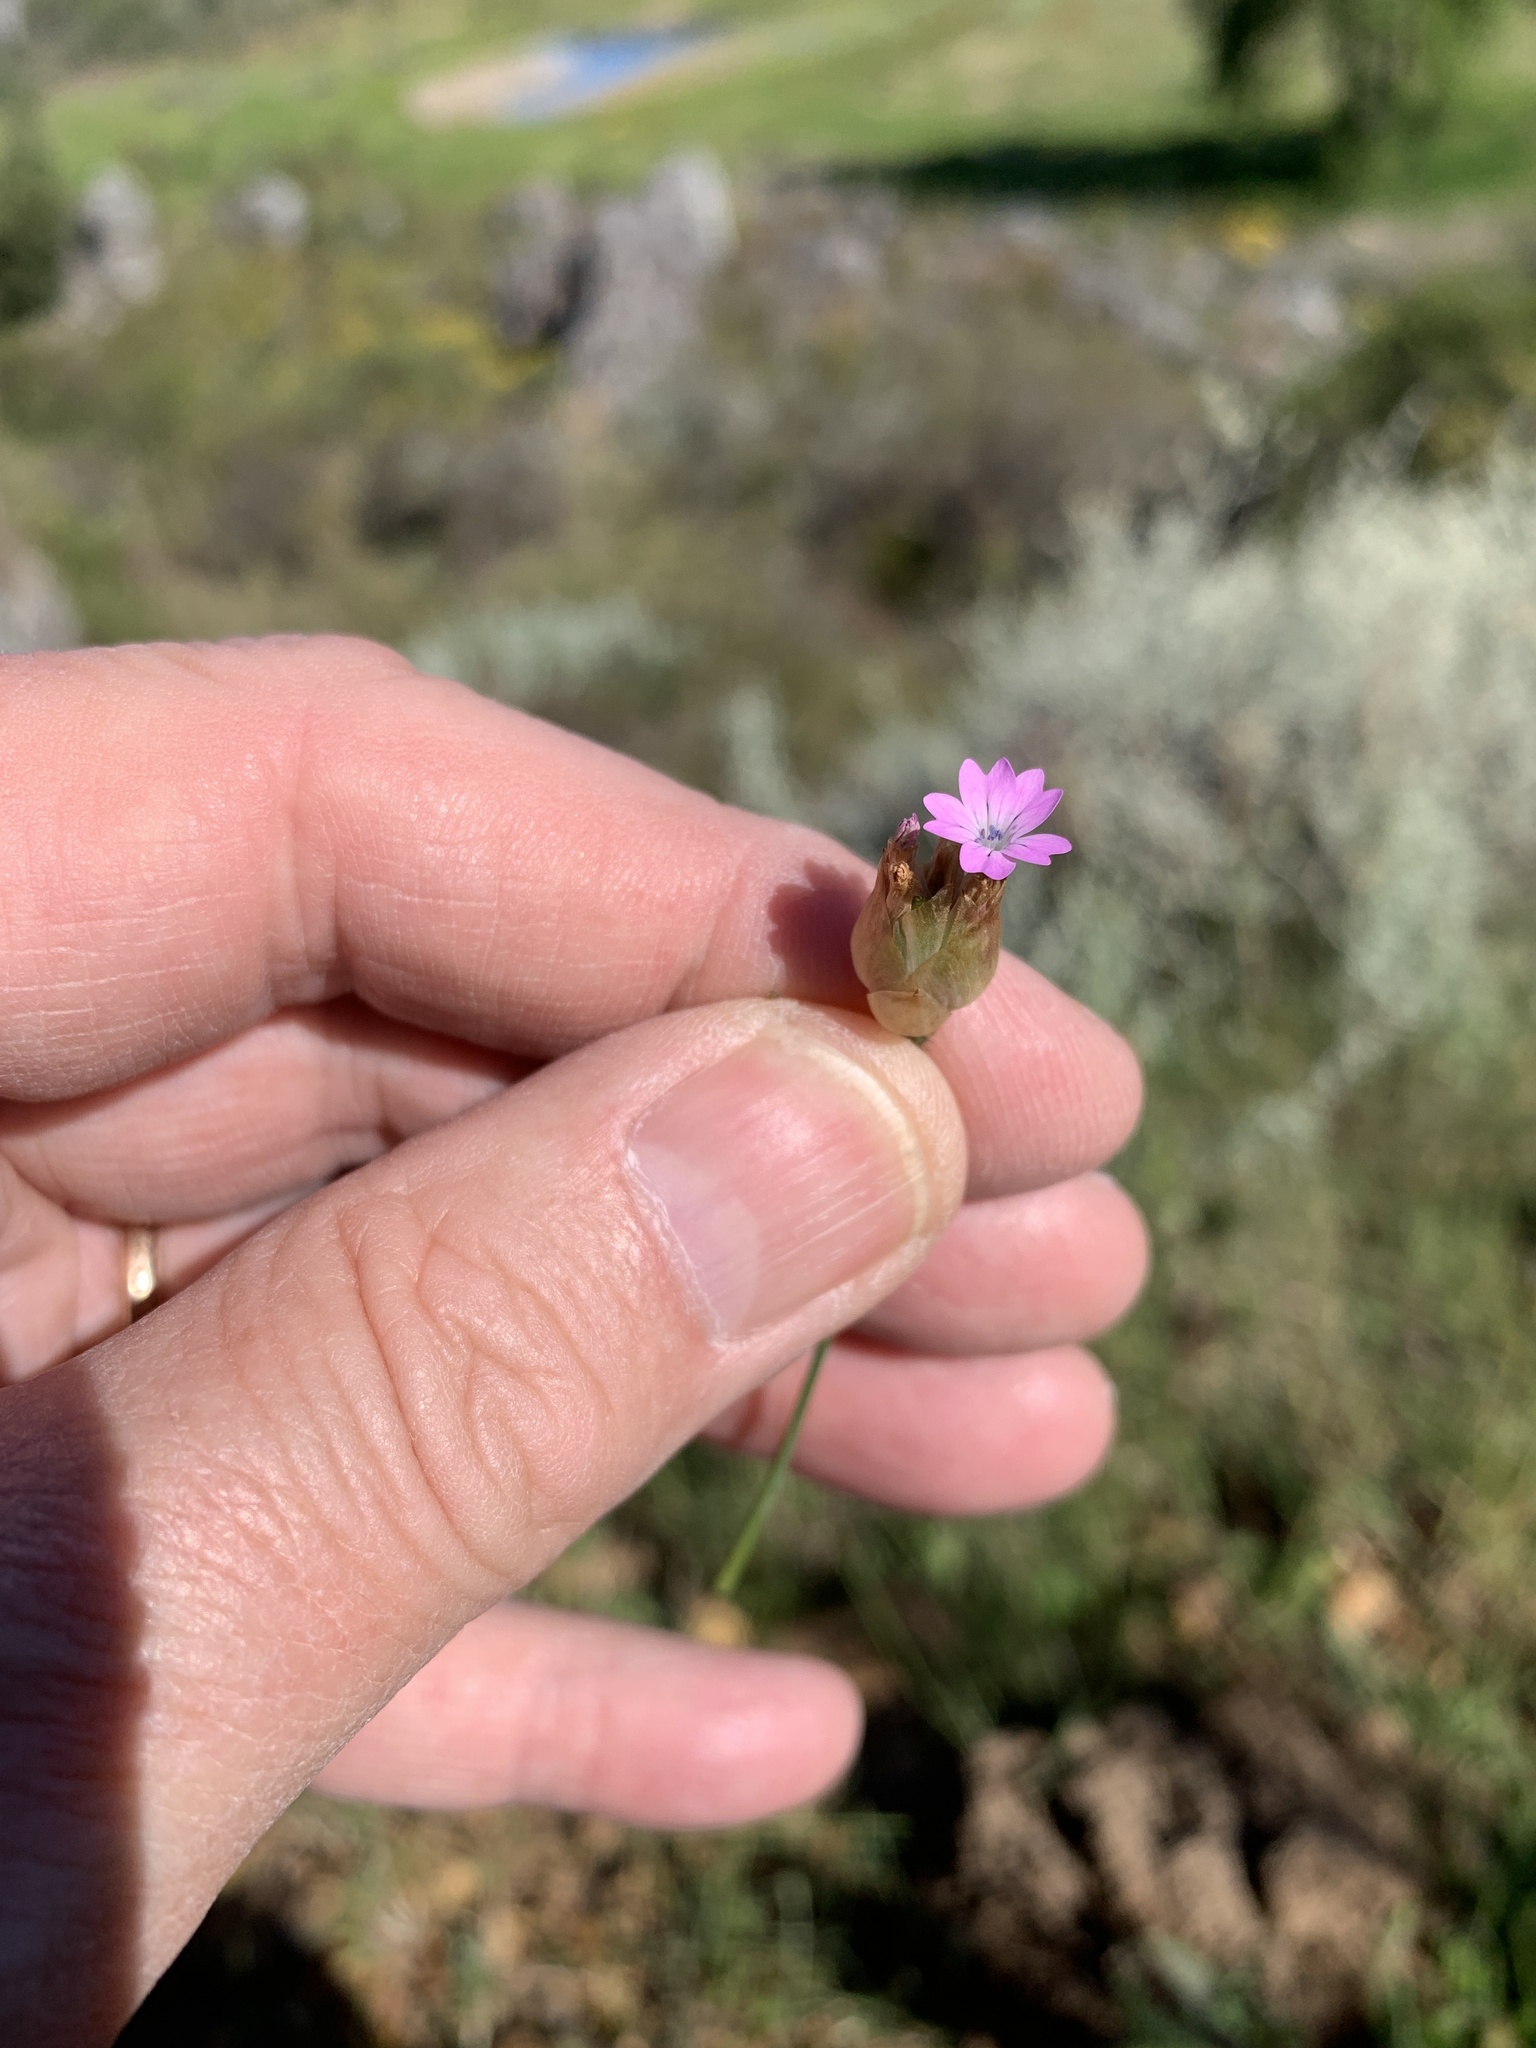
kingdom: Plantae
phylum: Tracheophyta
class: Magnoliopsida
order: Caryophyllales
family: Caryophyllaceae
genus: Petrorhagia
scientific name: Petrorhagia prolifera
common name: Proliferous pink
